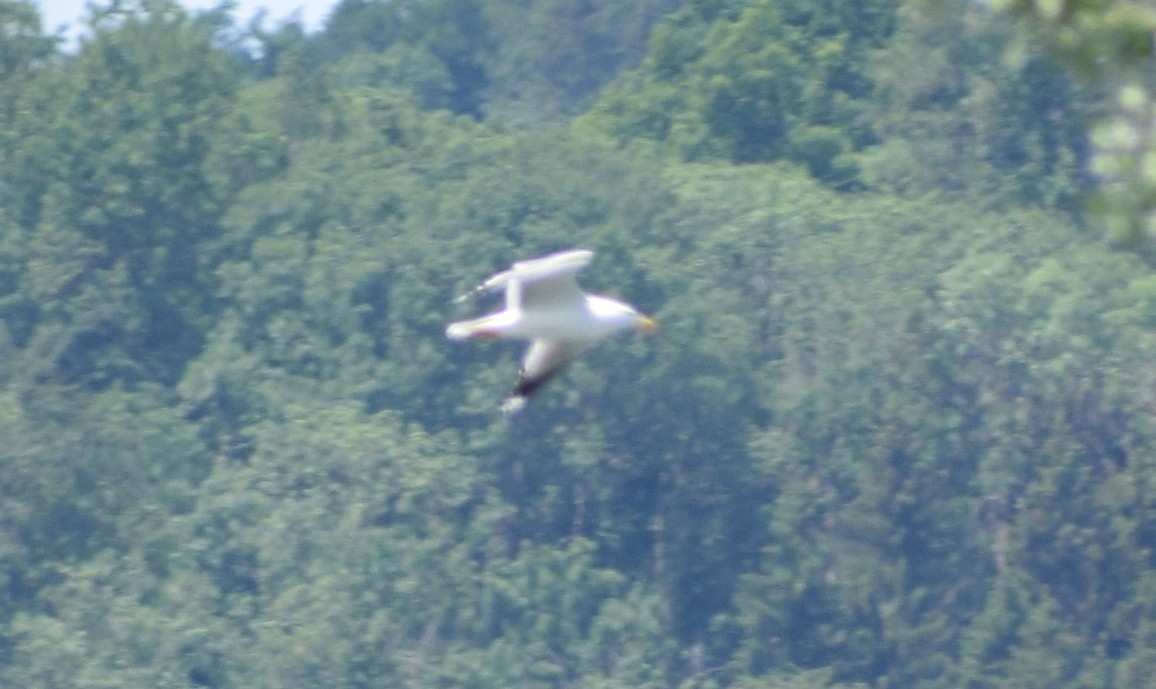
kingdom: Animalia
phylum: Chordata
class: Aves
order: Charadriiformes
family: Laridae
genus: Larus
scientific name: Larus michahellis
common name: Yellow-legged gull
